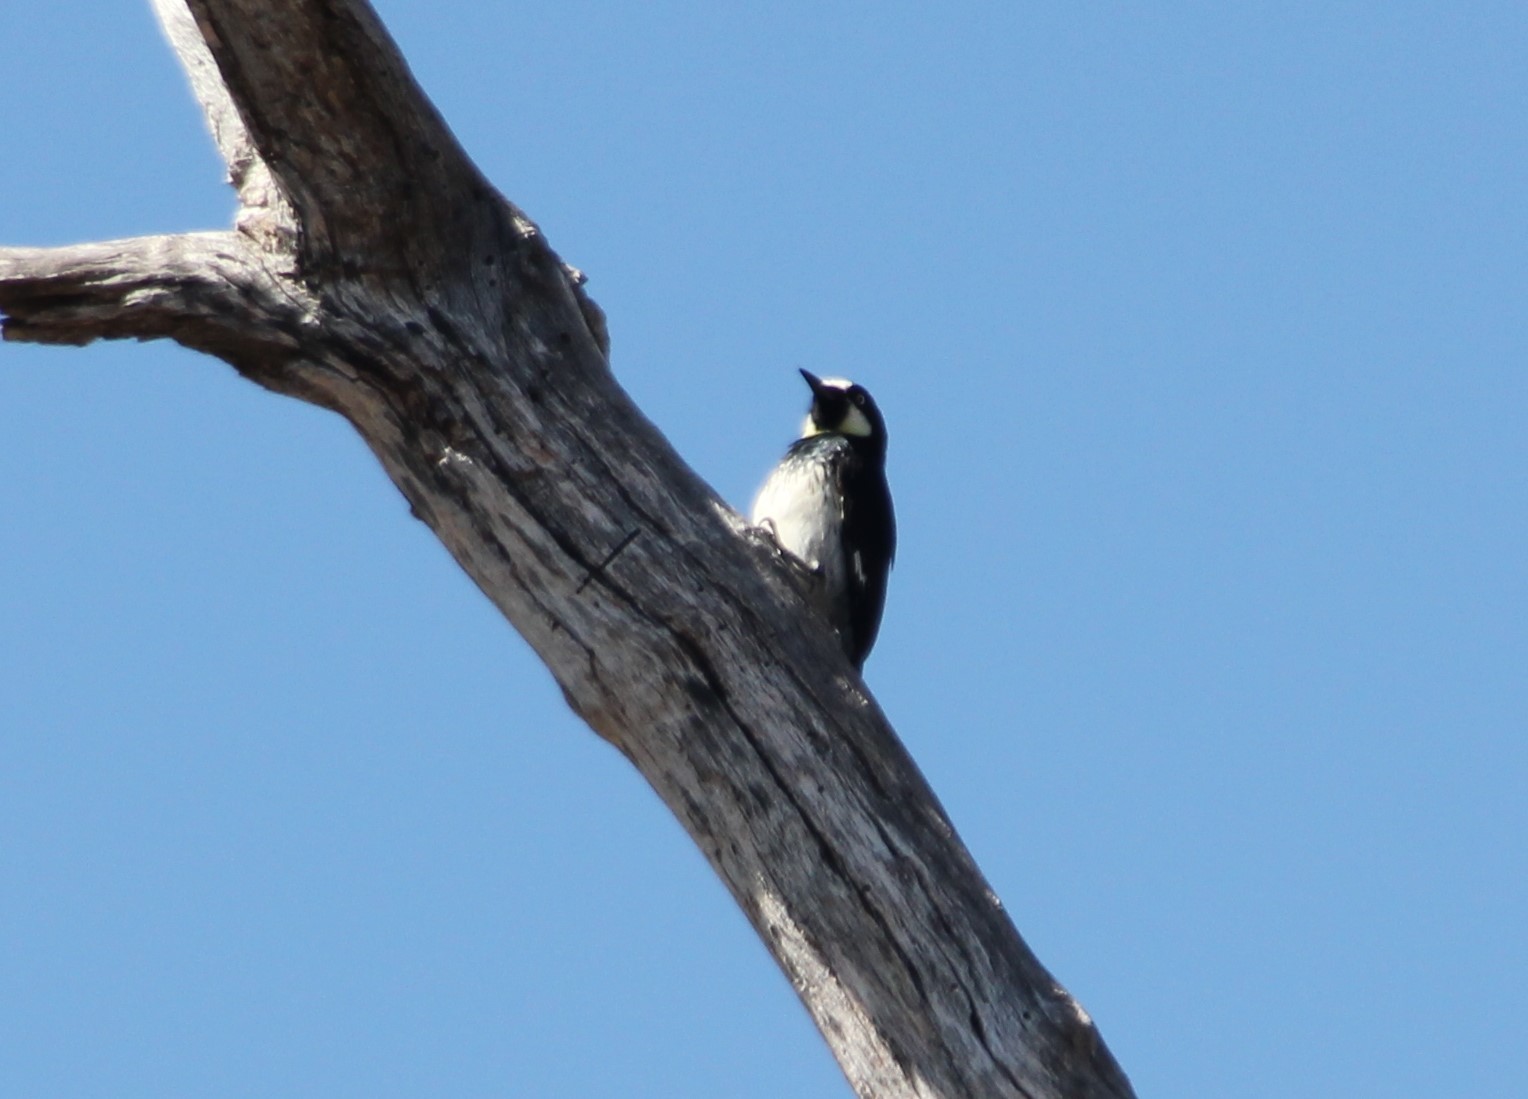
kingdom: Animalia
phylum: Chordata
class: Aves
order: Piciformes
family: Picidae
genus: Melanerpes
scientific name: Melanerpes formicivorus
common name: Acorn woodpecker
